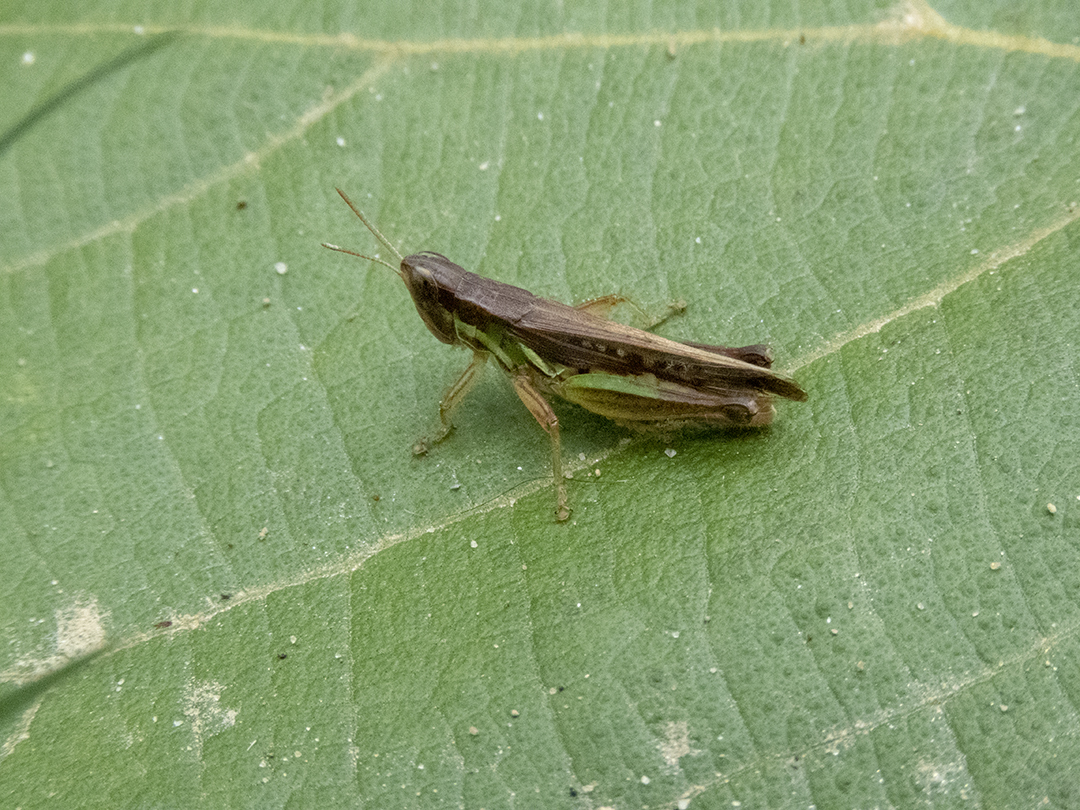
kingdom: Animalia
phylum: Arthropoda
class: Insecta
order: Orthoptera
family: Acrididae
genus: Spathosternum
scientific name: Spathosternum prasiniferum
